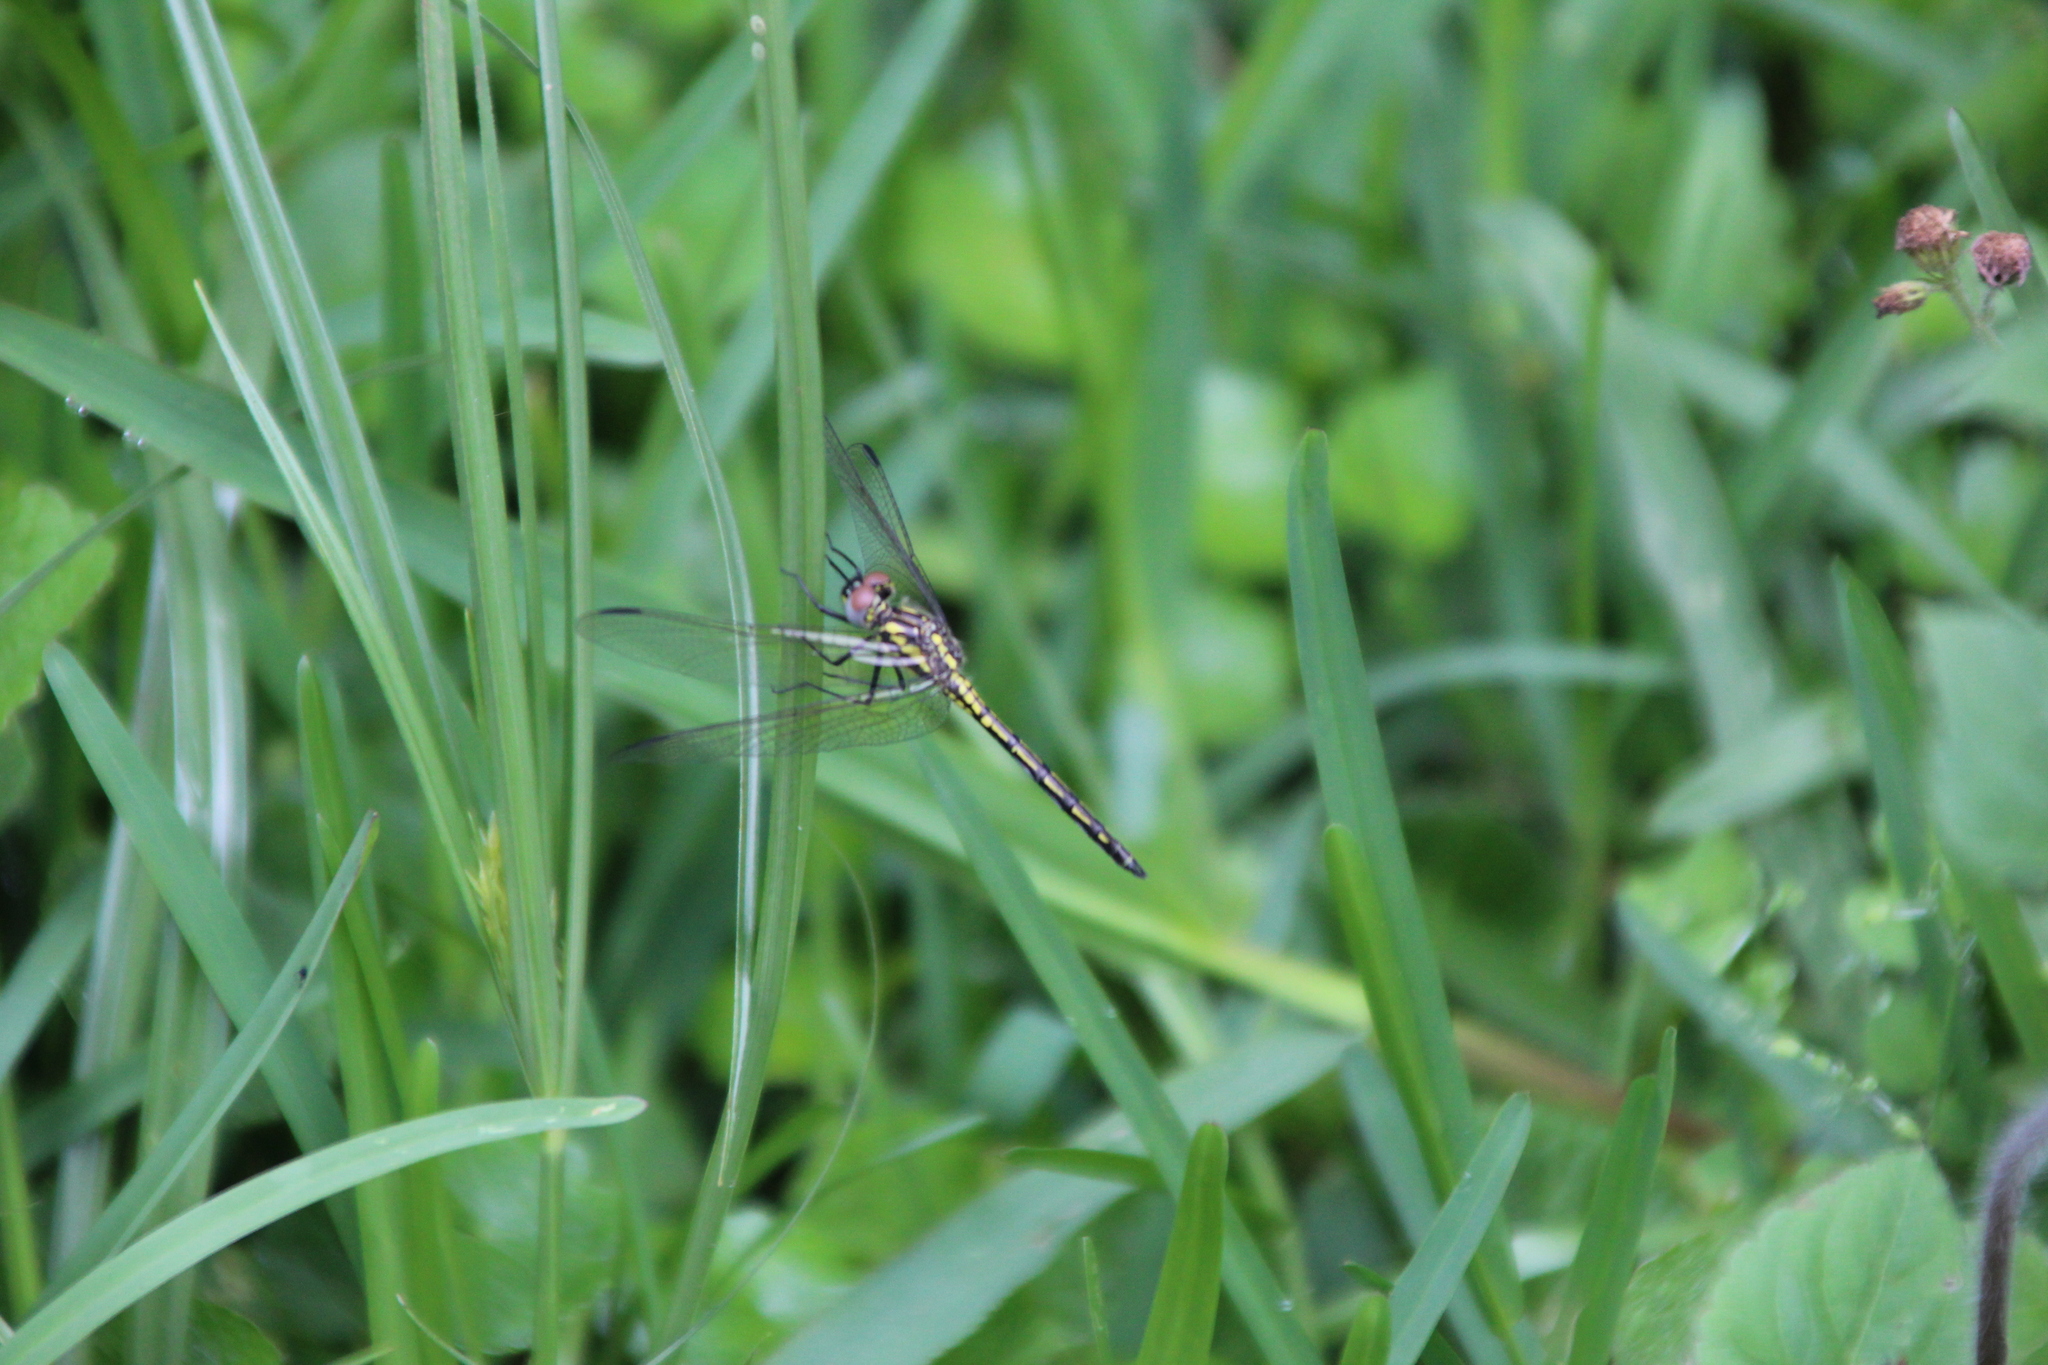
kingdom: Animalia
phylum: Arthropoda
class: Insecta
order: Odonata
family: Libellulidae
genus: Trithemis
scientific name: Trithemis stictica
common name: Jaunty dropwing
